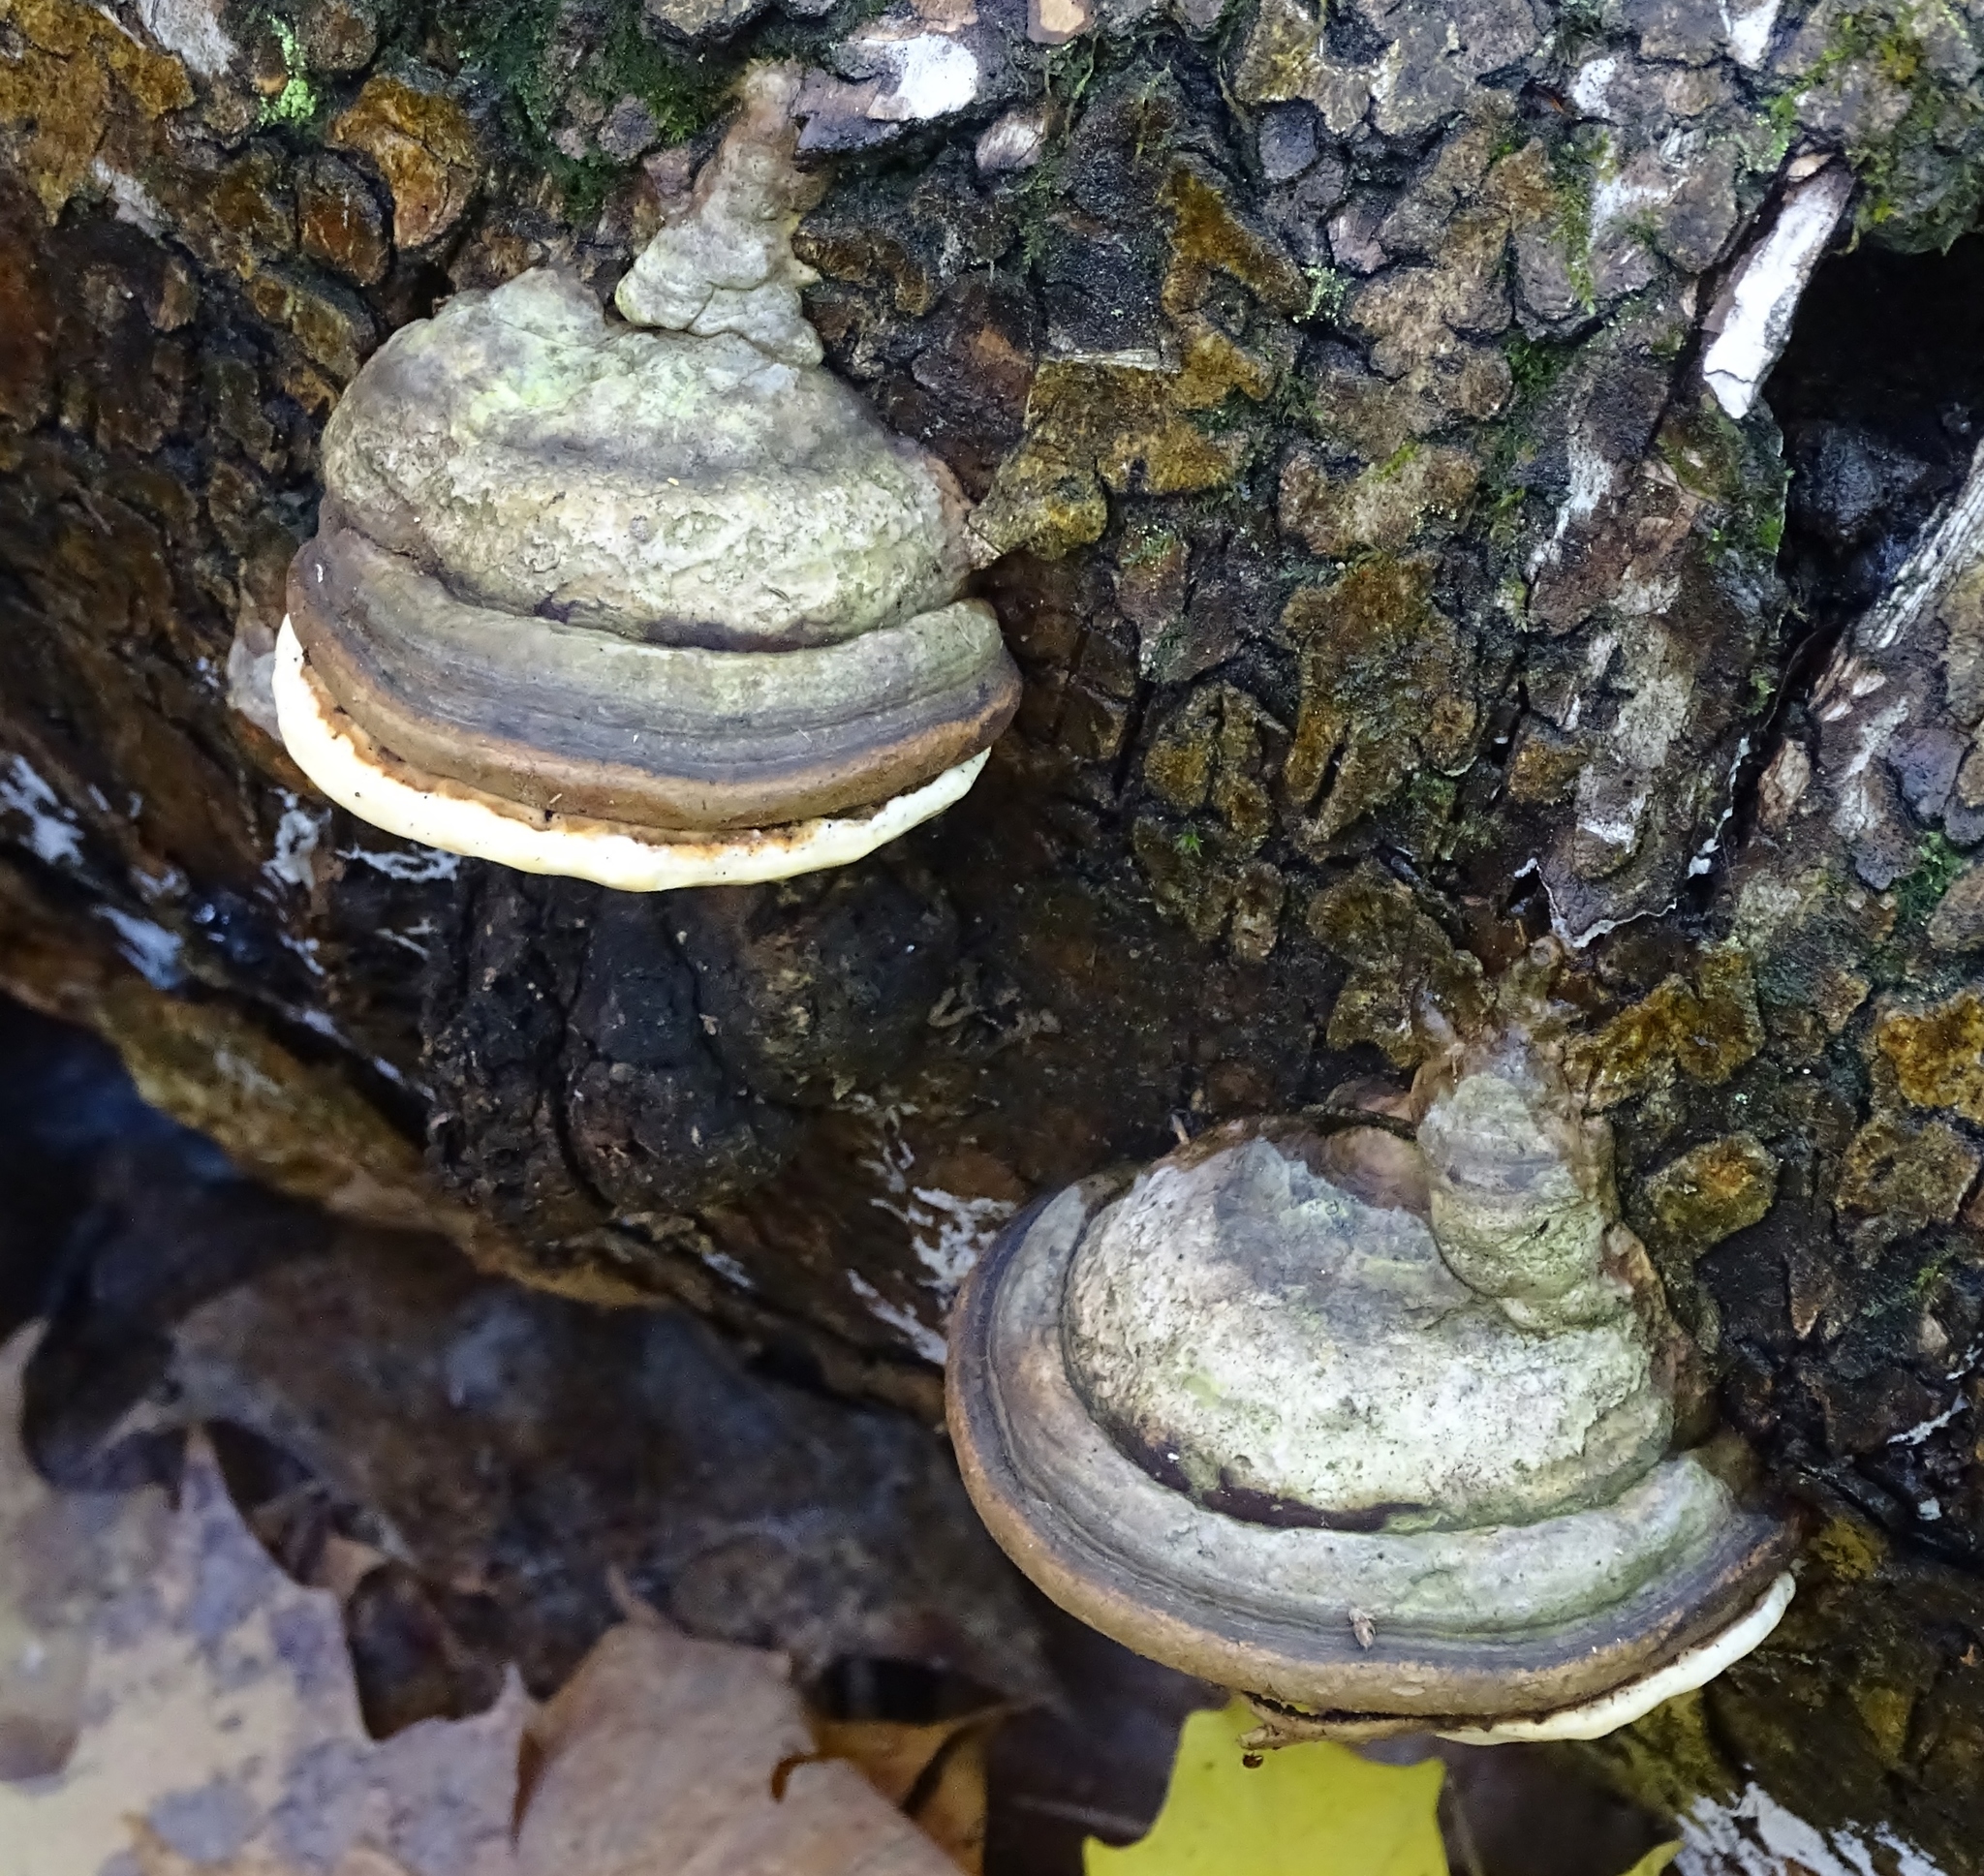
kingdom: Fungi
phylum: Basidiomycota
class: Agaricomycetes
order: Polyporales
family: Polyporaceae
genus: Fomes
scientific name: Fomes fomentarius
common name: Hoof fungus
